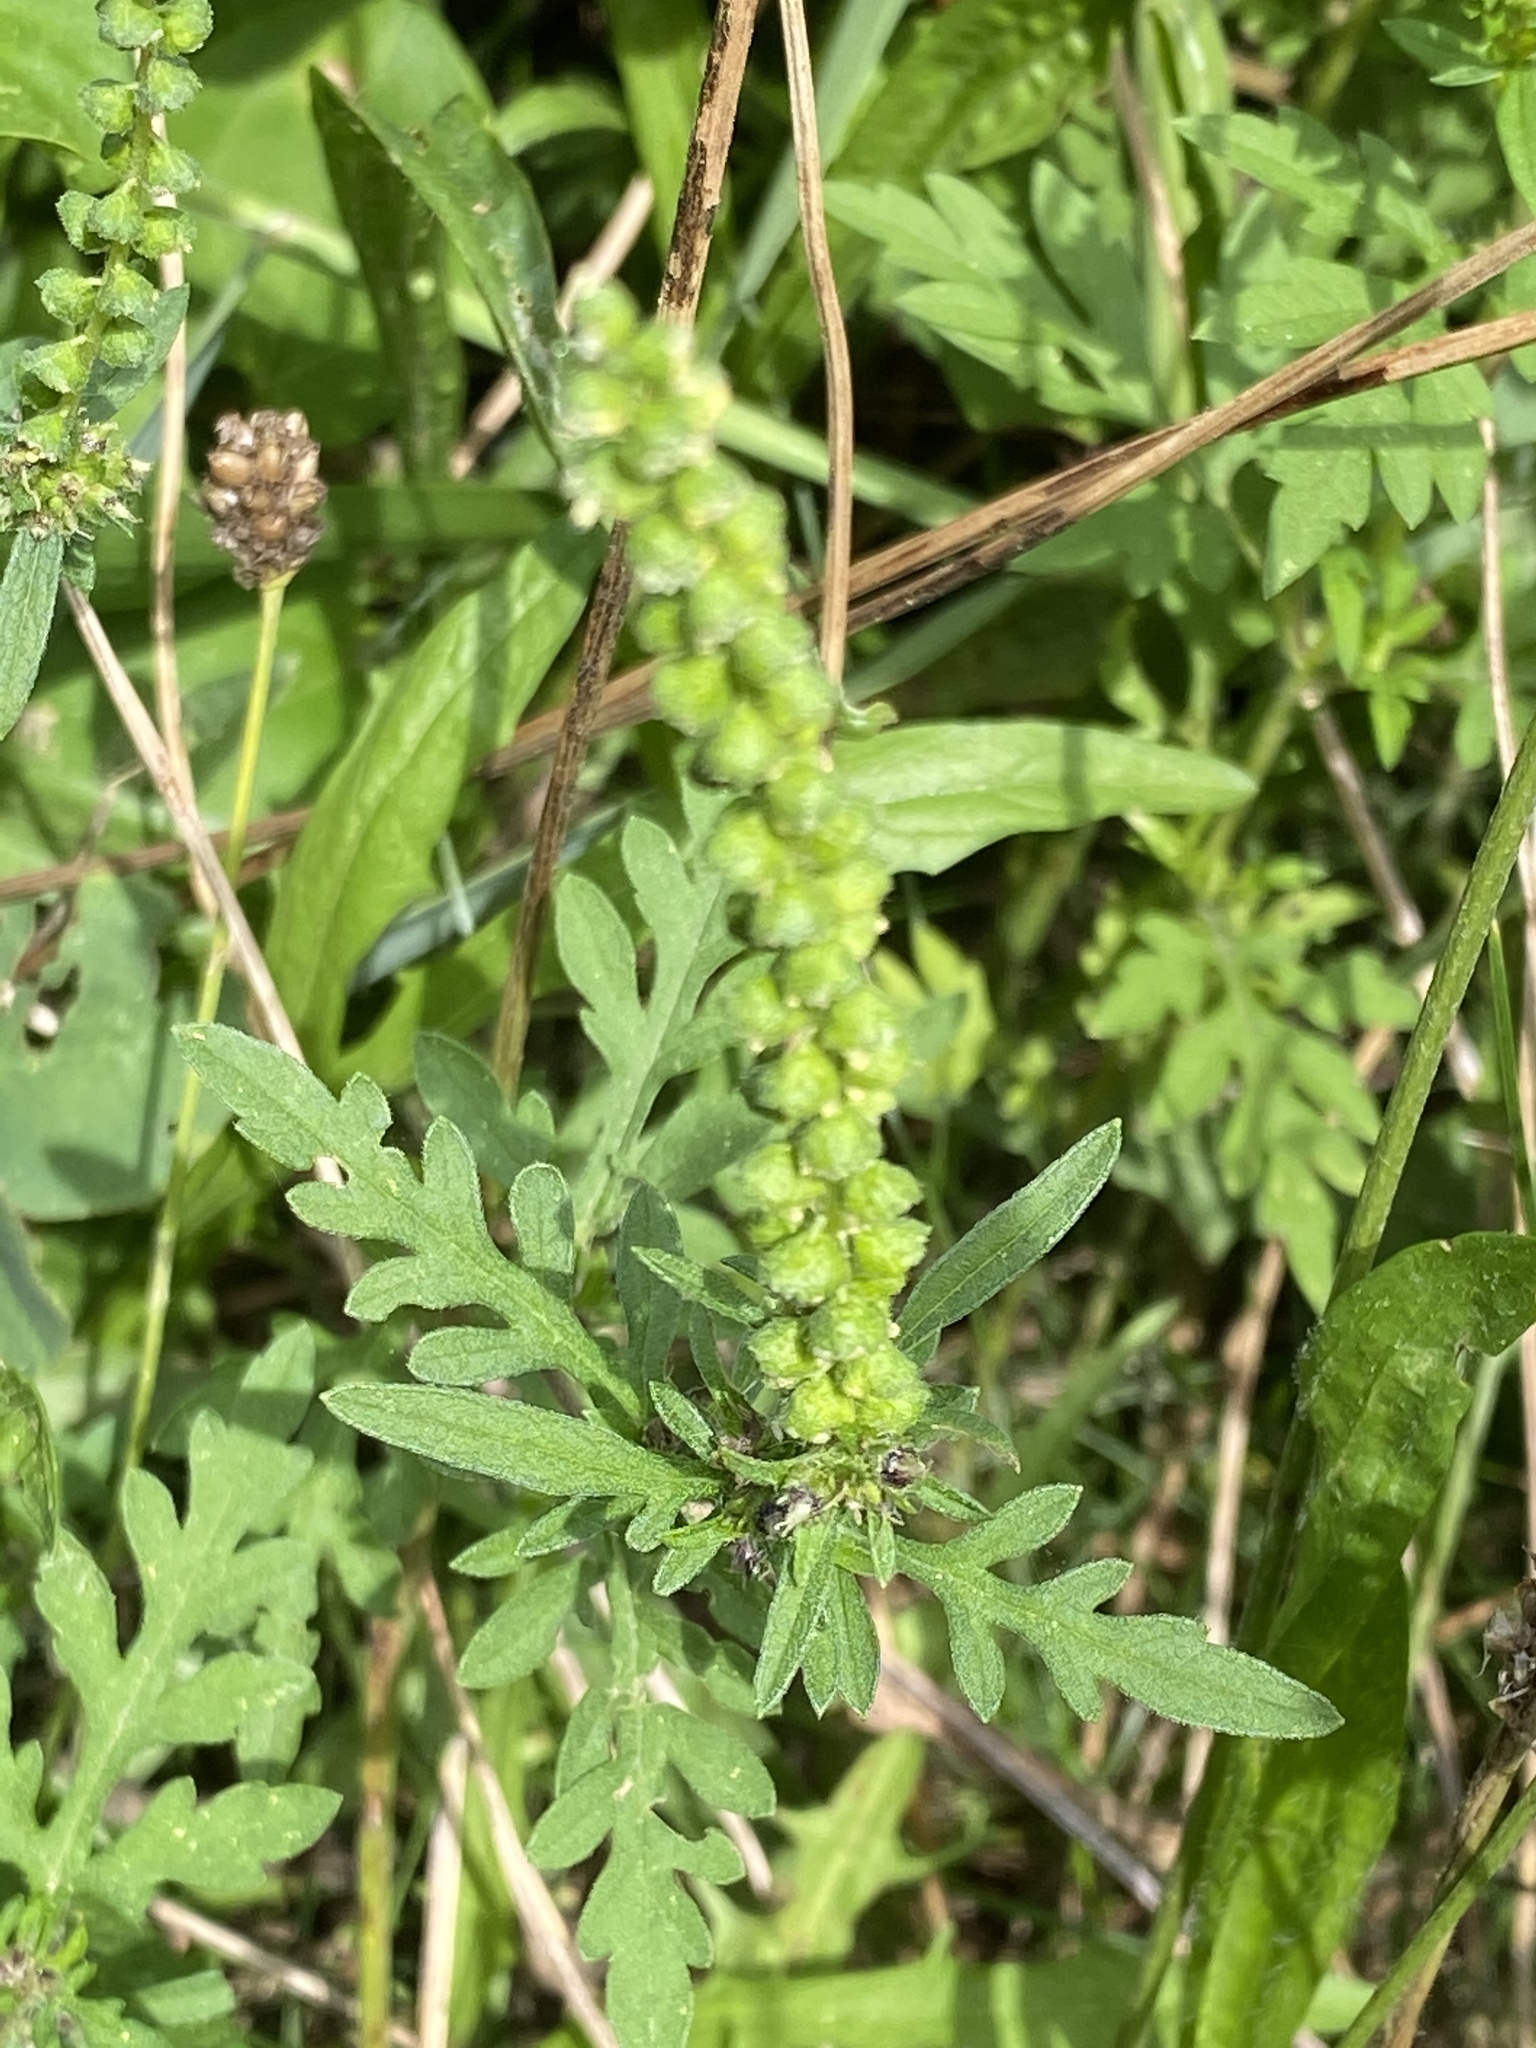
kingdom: Plantae
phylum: Tracheophyta
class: Magnoliopsida
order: Asterales
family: Asteraceae
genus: Ambrosia
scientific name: Ambrosia artemisiifolia
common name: Annual ragweed
